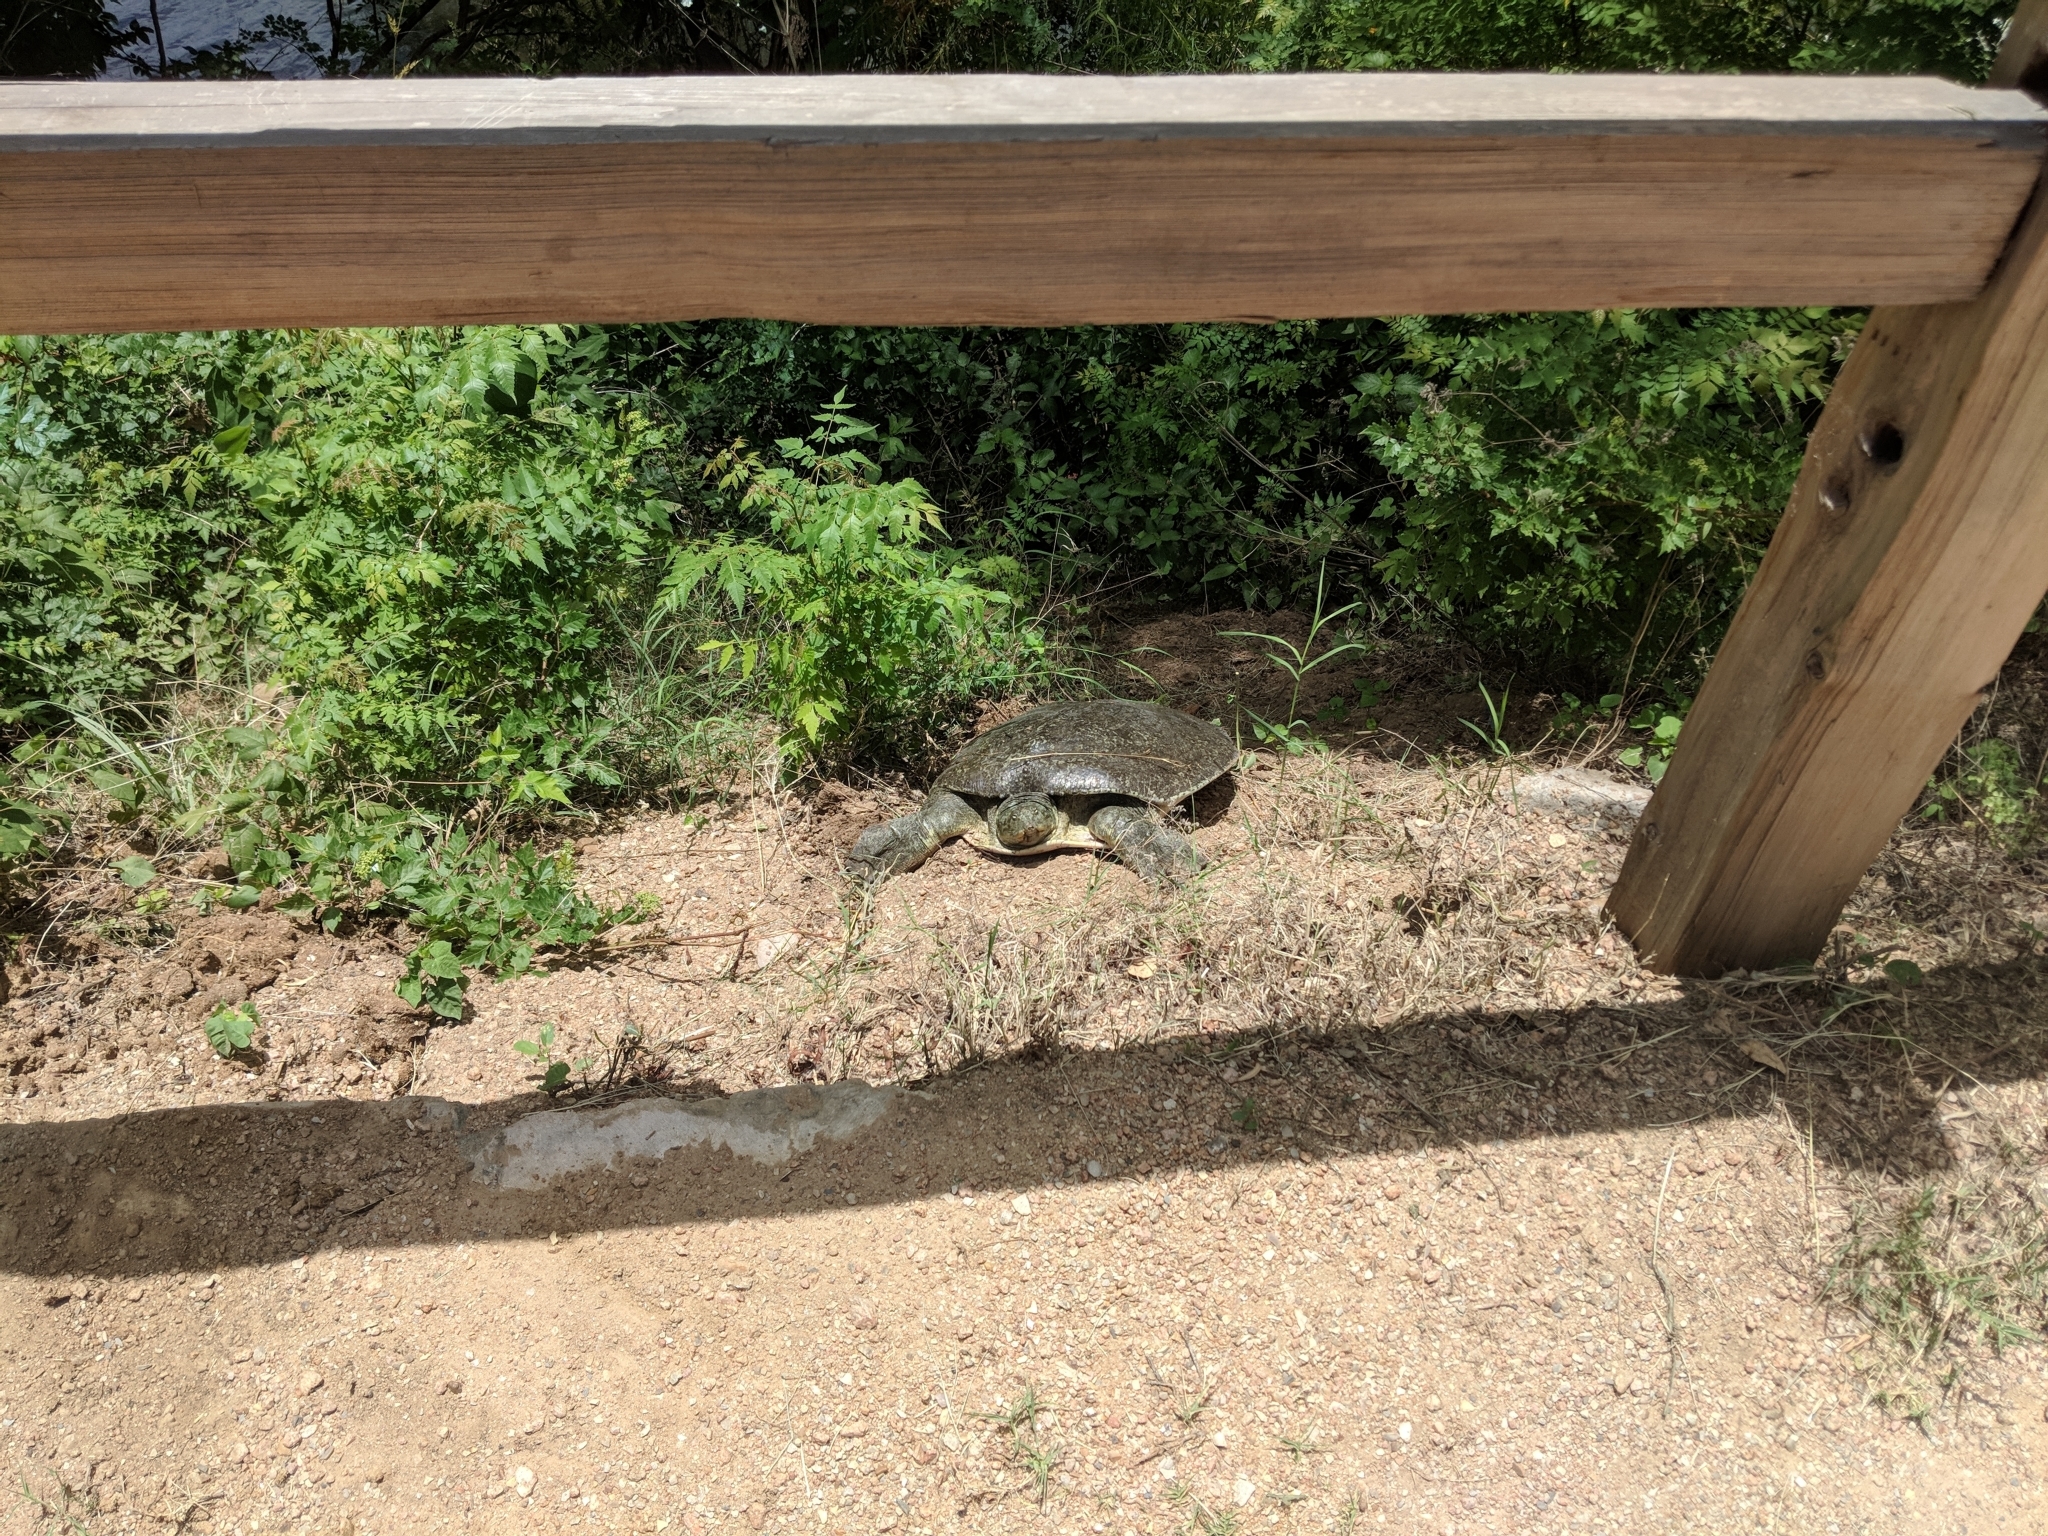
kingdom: Animalia
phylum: Chordata
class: Testudines
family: Trionychidae
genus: Apalone
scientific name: Apalone spinifera
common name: Spiny softshell turtle
